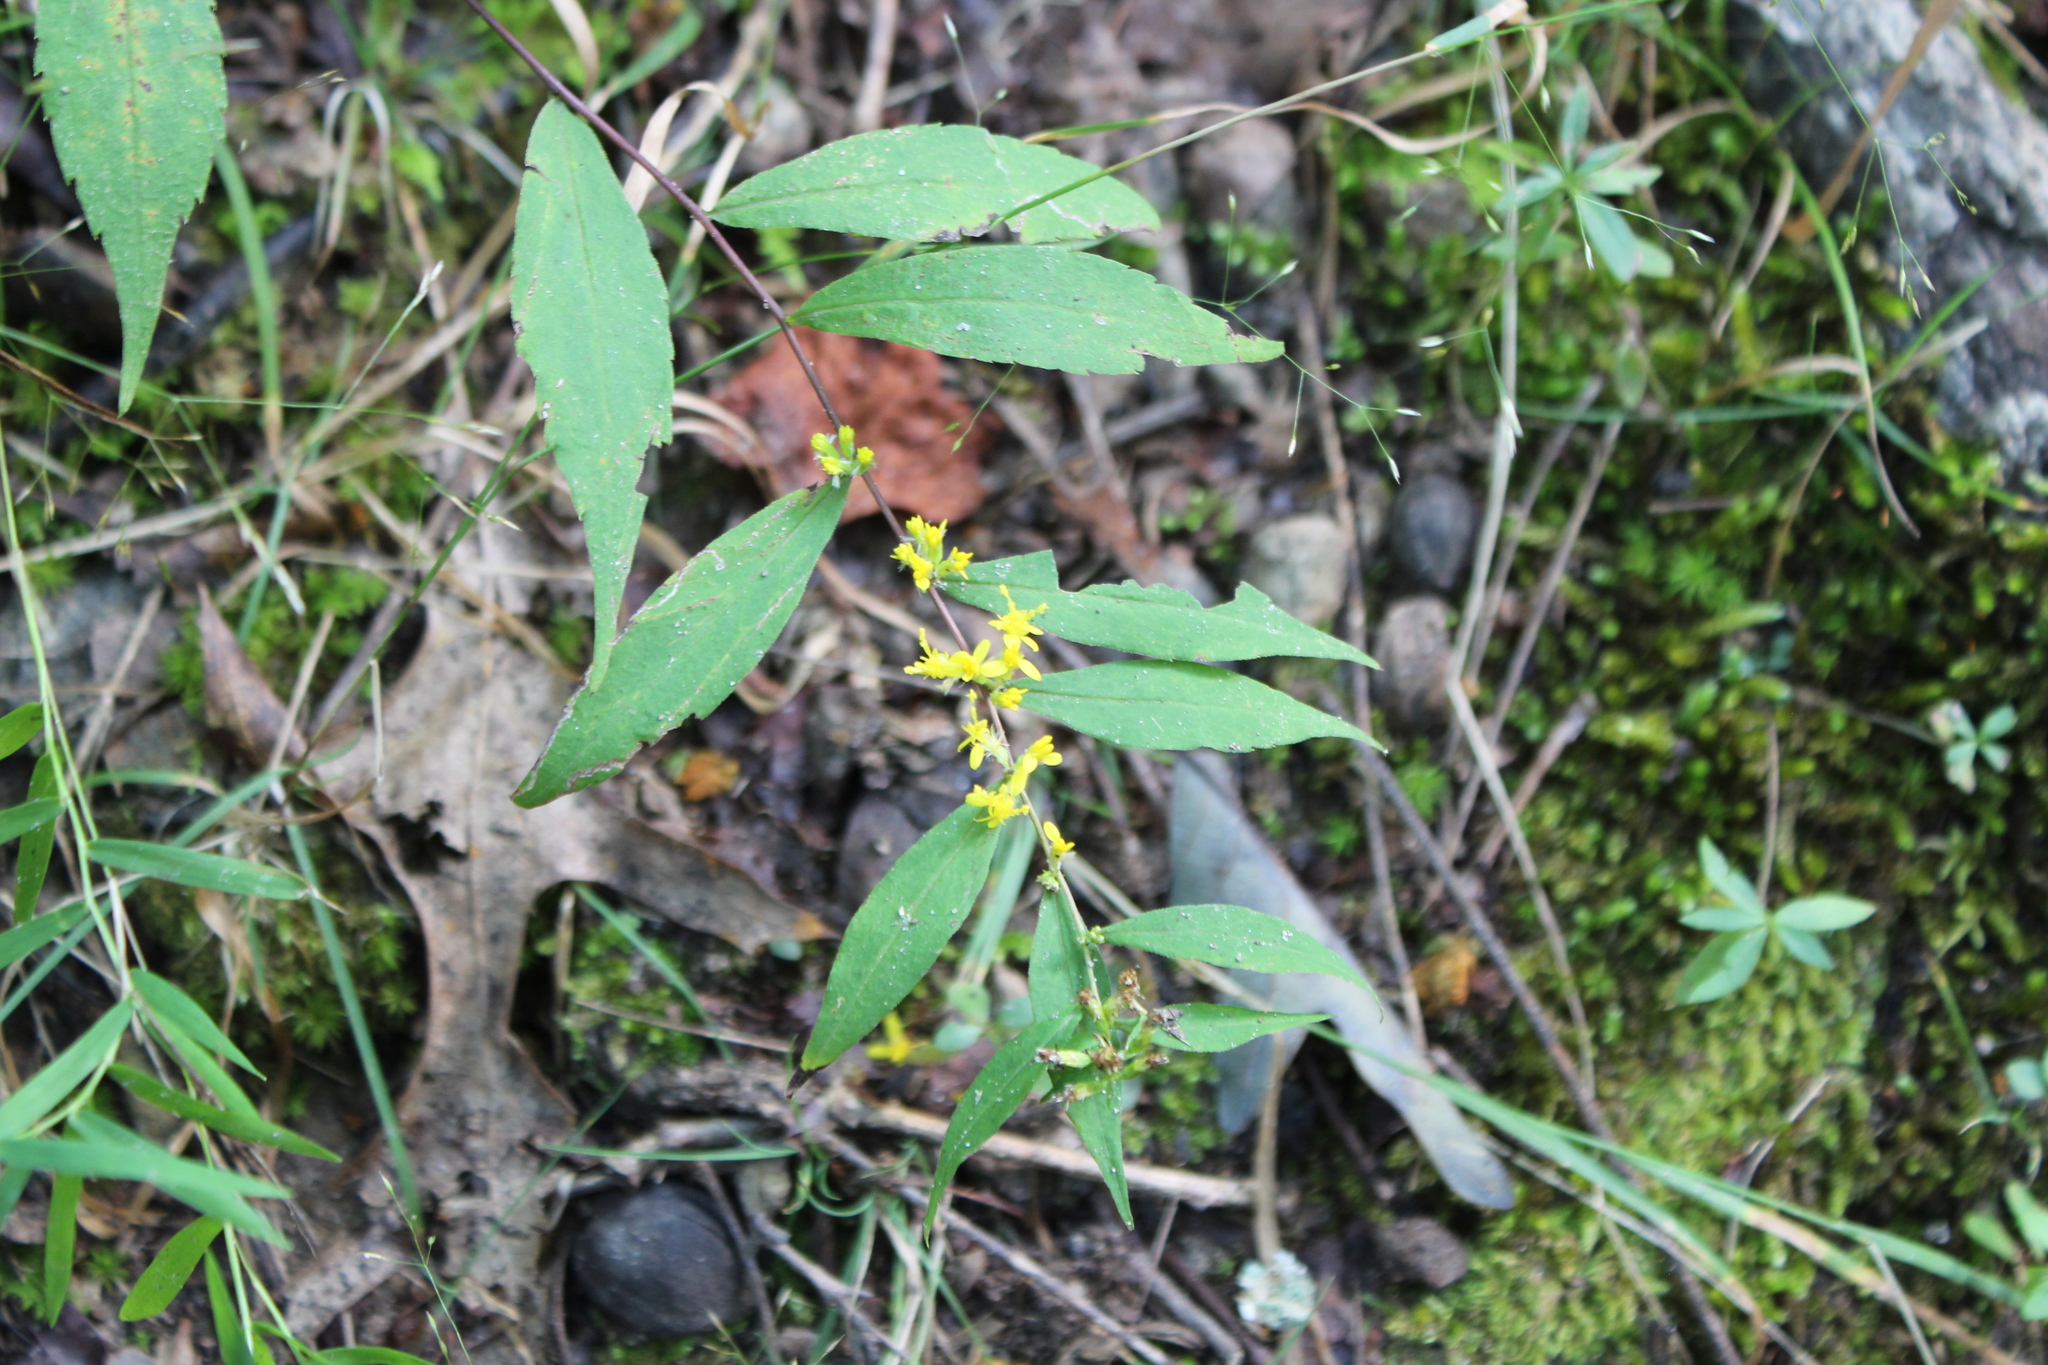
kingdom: Plantae
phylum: Tracheophyta
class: Magnoliopsida
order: Asterales
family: Asteraceae
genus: Solidago
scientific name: Solidago caesia
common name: Woodland goldenrod
